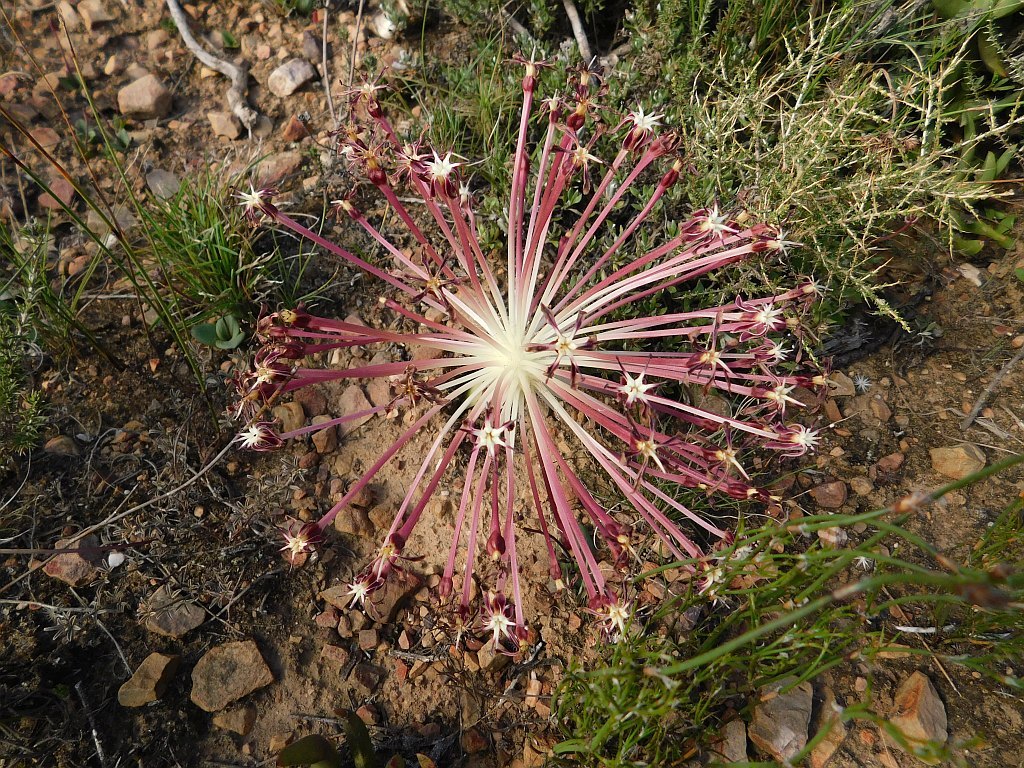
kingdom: Plantae
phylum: Tracheophyta
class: Liliopsida
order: Asparagales
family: Amaryllidaceae
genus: Crossyne
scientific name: Crossyne guttata
